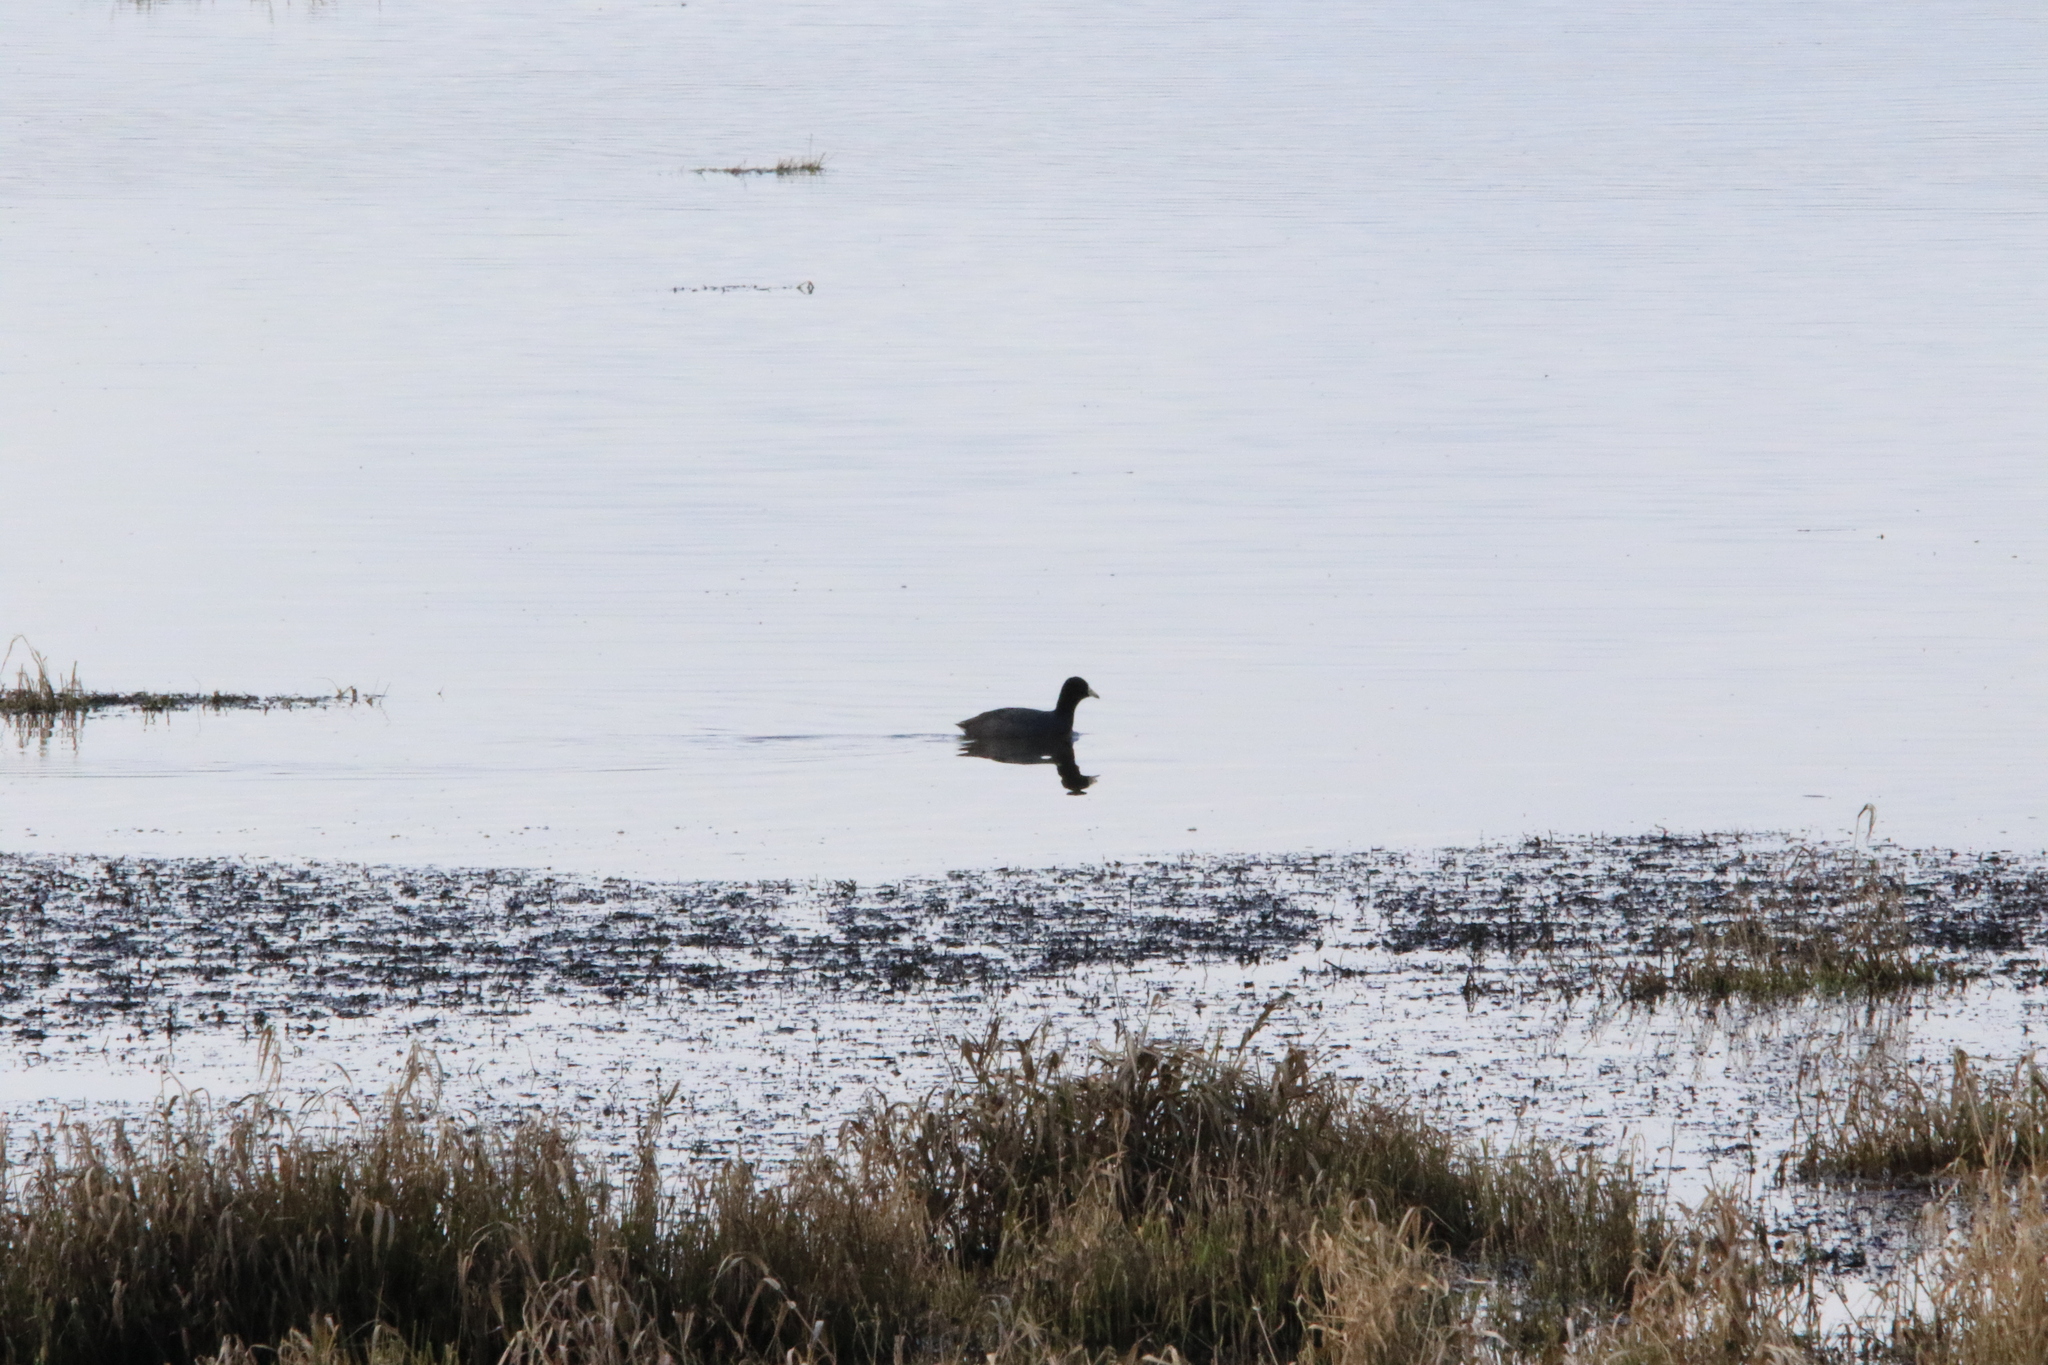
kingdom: Animalia
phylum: Chordata
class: Aves
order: Gruiformes
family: Rallidae
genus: Fulica
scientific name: Fulica americana
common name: American coot
